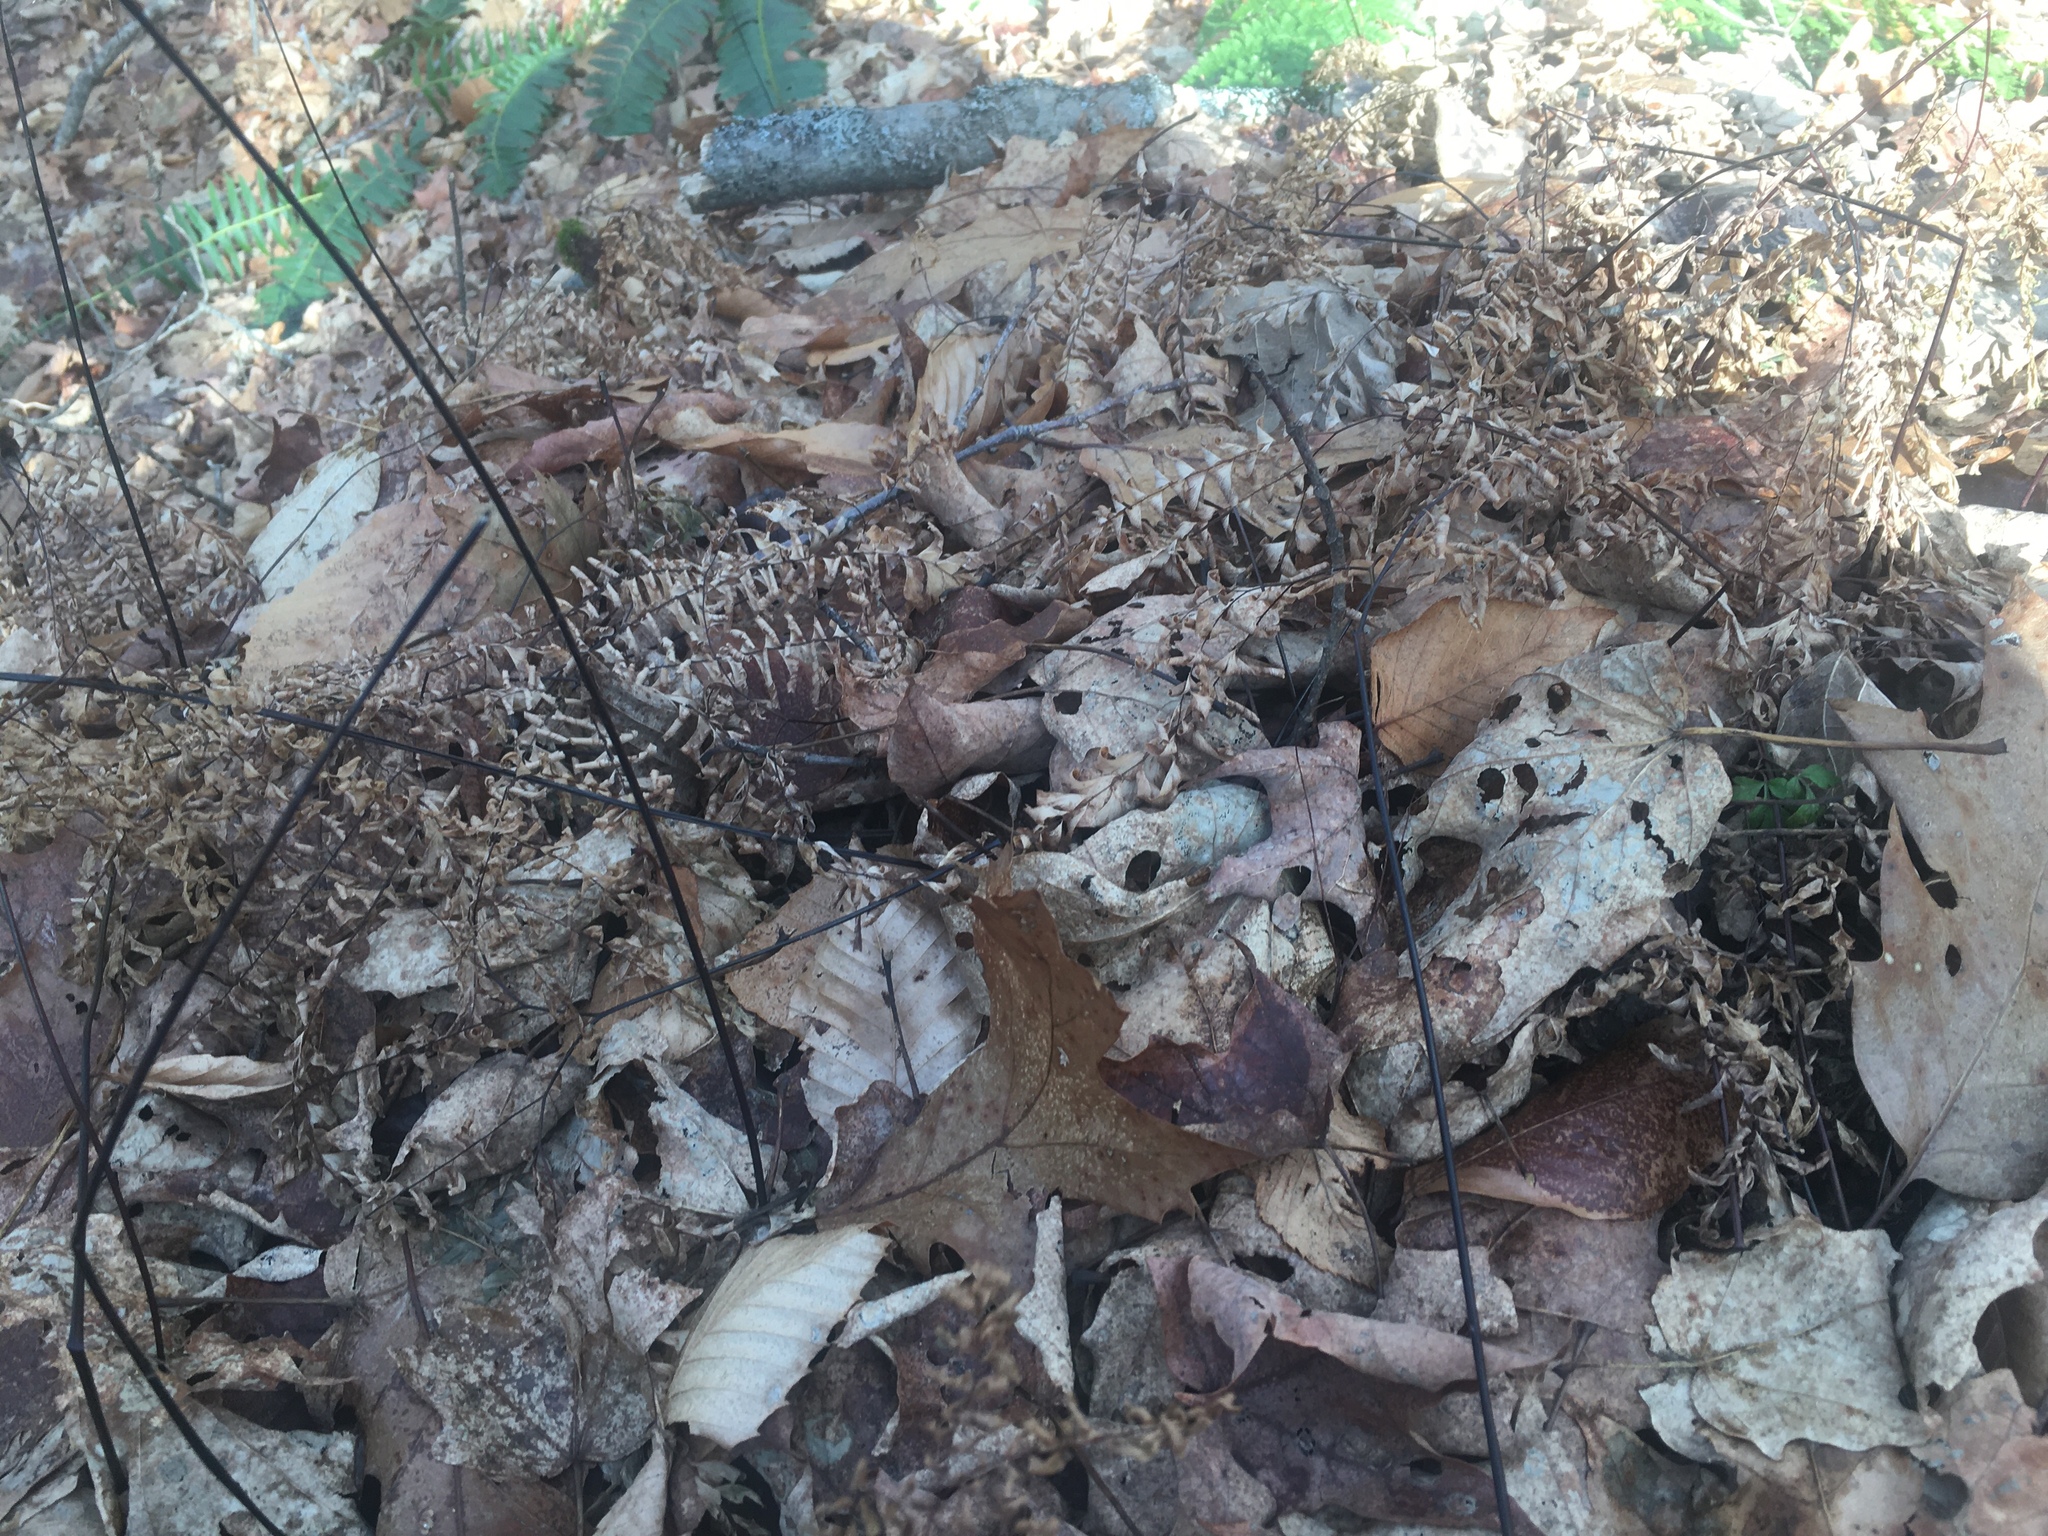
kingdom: Plantae
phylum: Tracheophyta
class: Polypodiopsida
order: Polypodiales
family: Pteridaceae
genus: Adiantum
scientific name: Adiantum pedatum
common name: Five-finger fern
